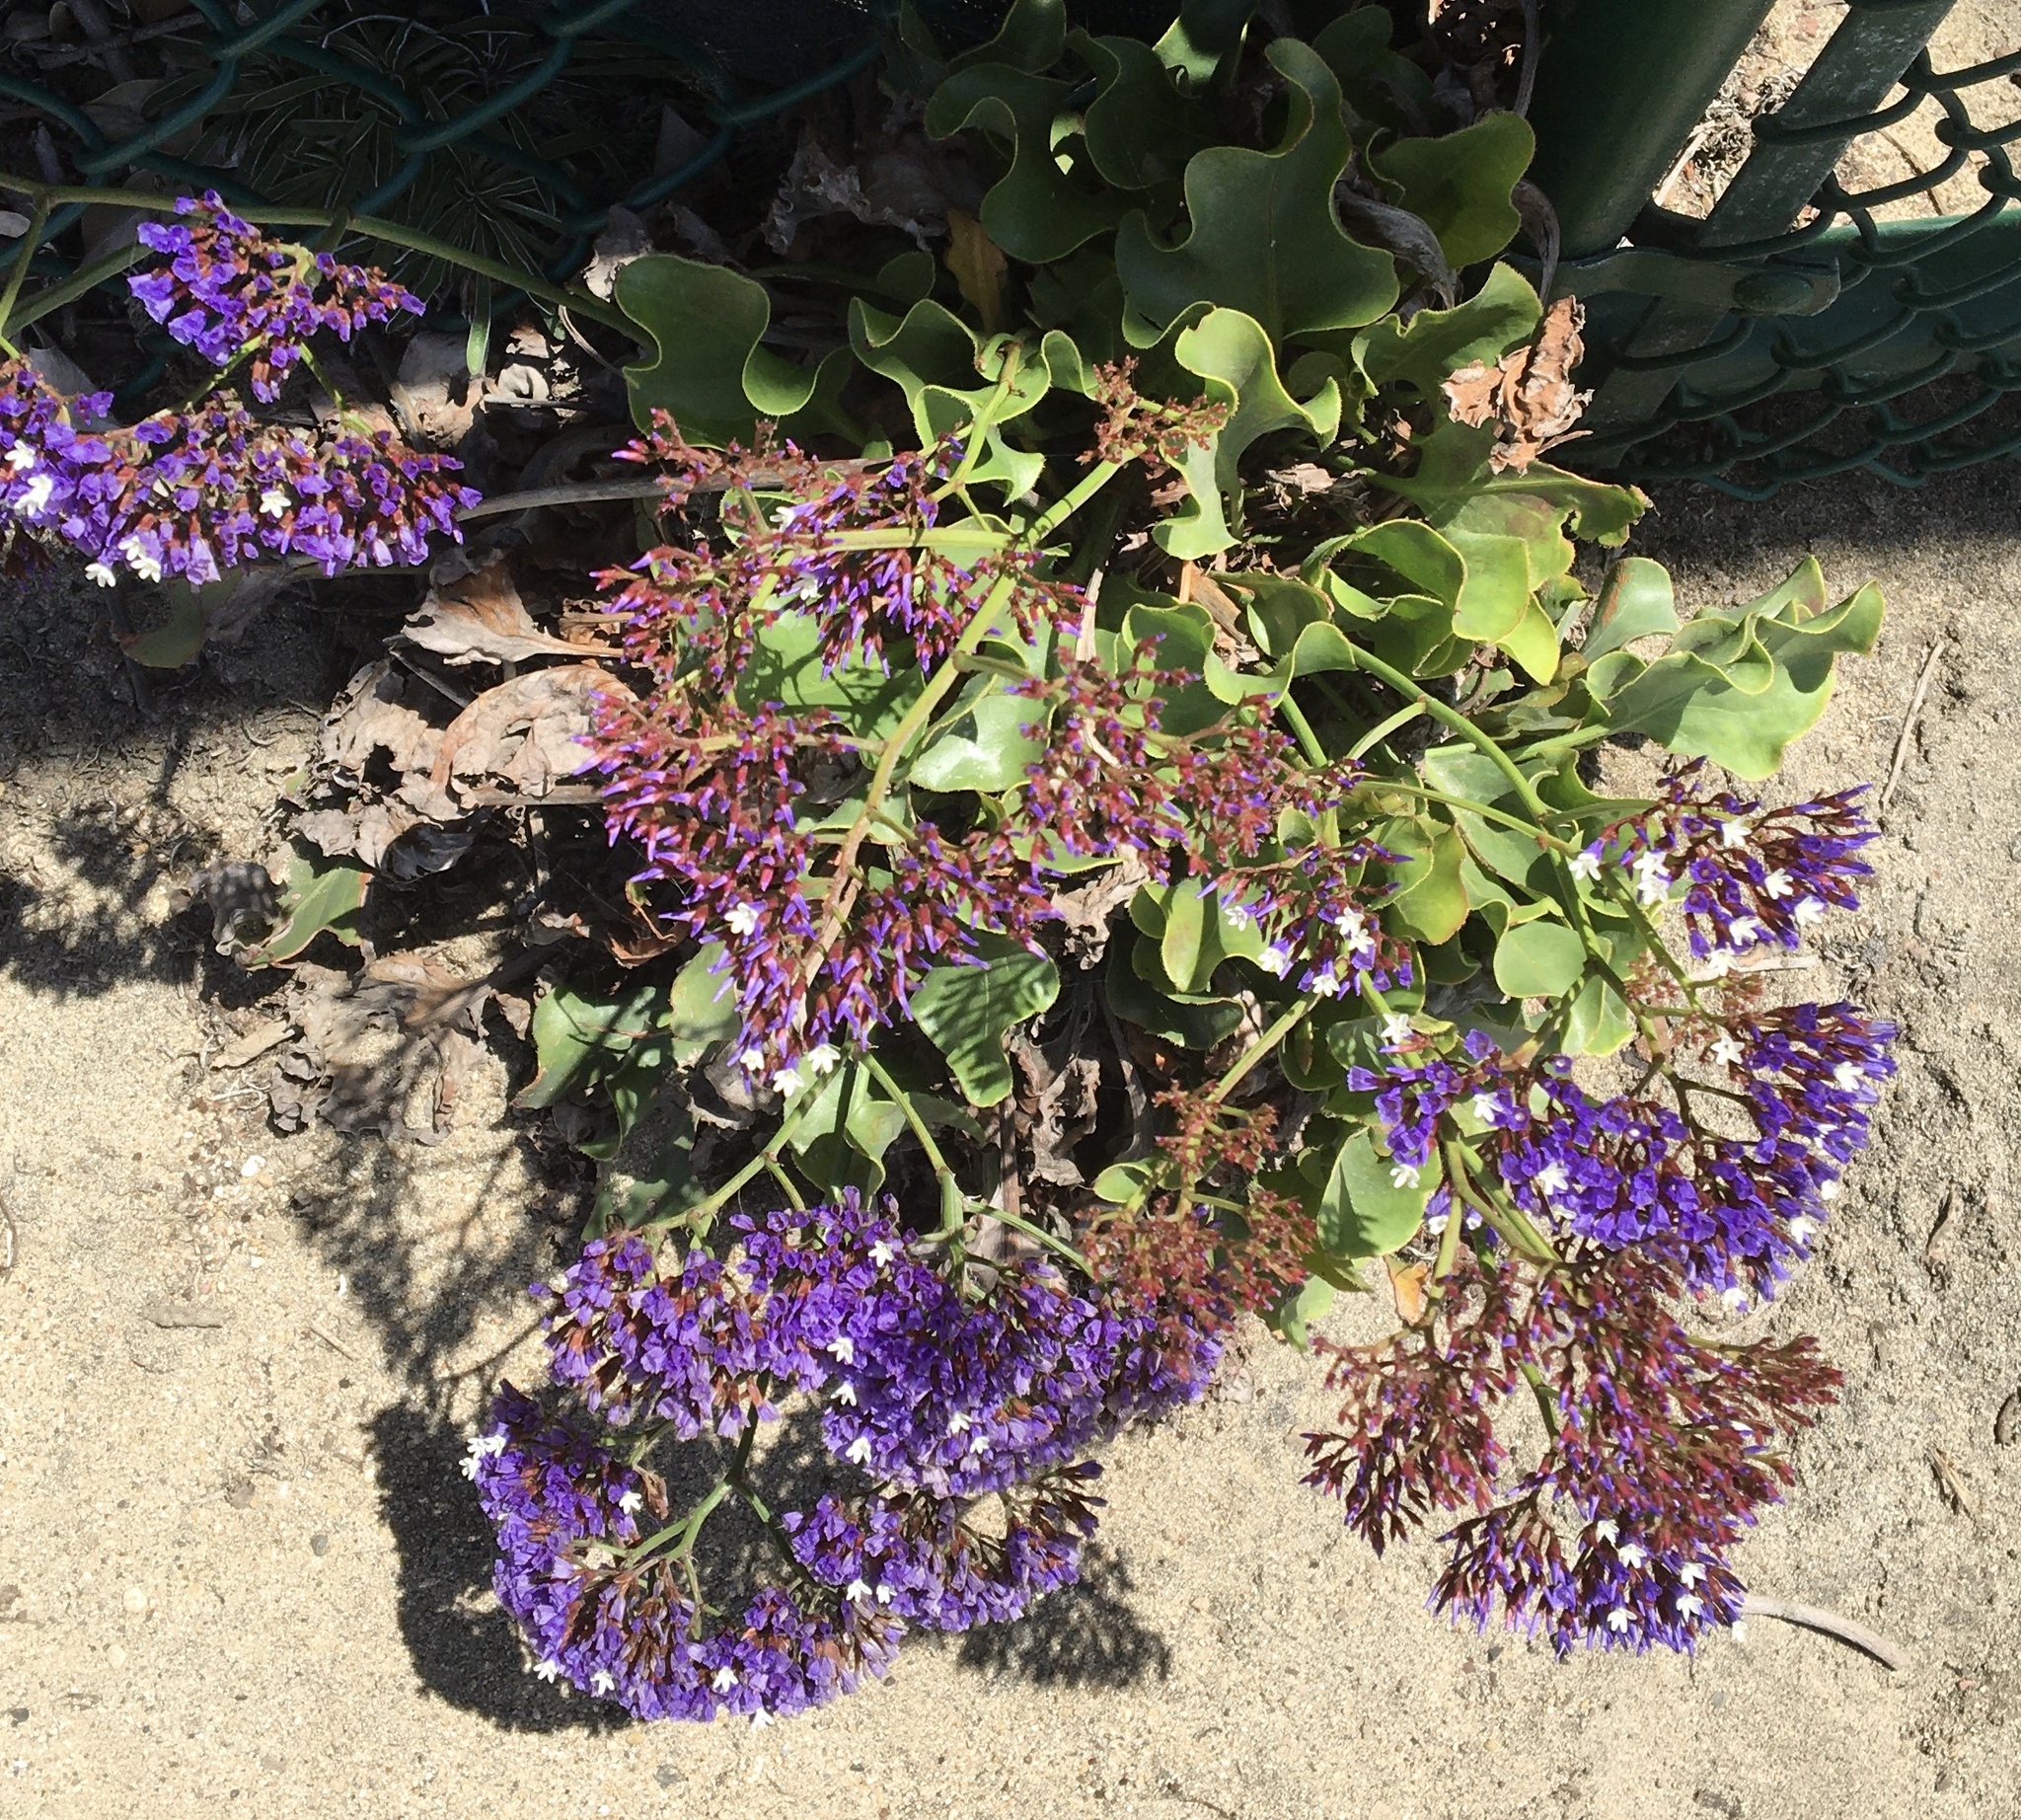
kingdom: Plantae
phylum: Tracheophyta
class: Magnoliopsida
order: Caryophyllales
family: Plumbaginaceae
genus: Limonium
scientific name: Limonium perezii
